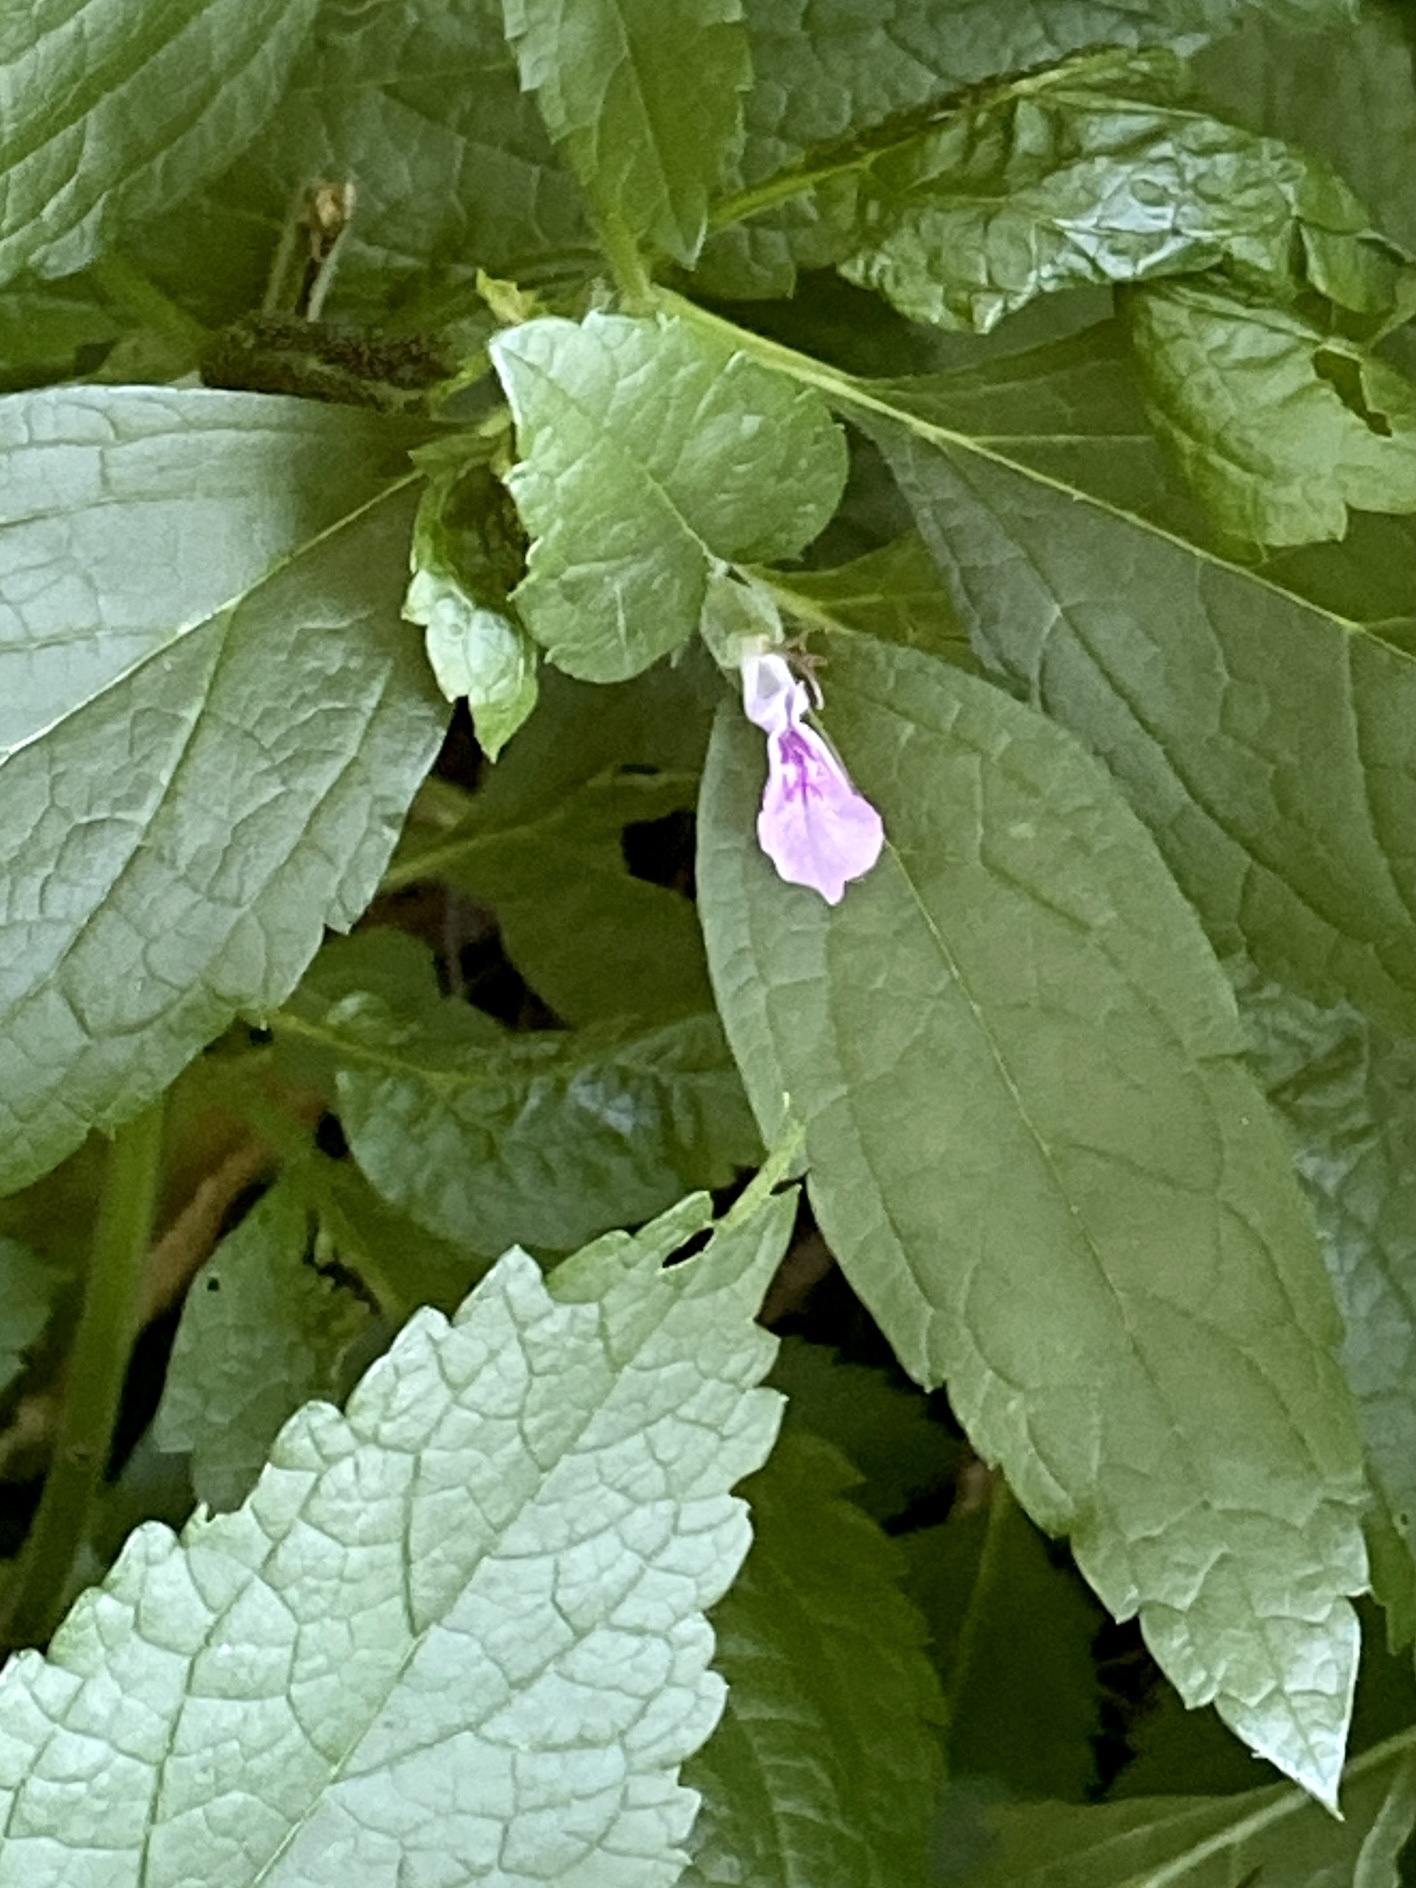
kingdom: Plantae
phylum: Tracheophyta
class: Magnoliopsida
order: Lamiales
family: Lamiaceae
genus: Teucrium
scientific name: Teucrium canadense
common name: American germander
